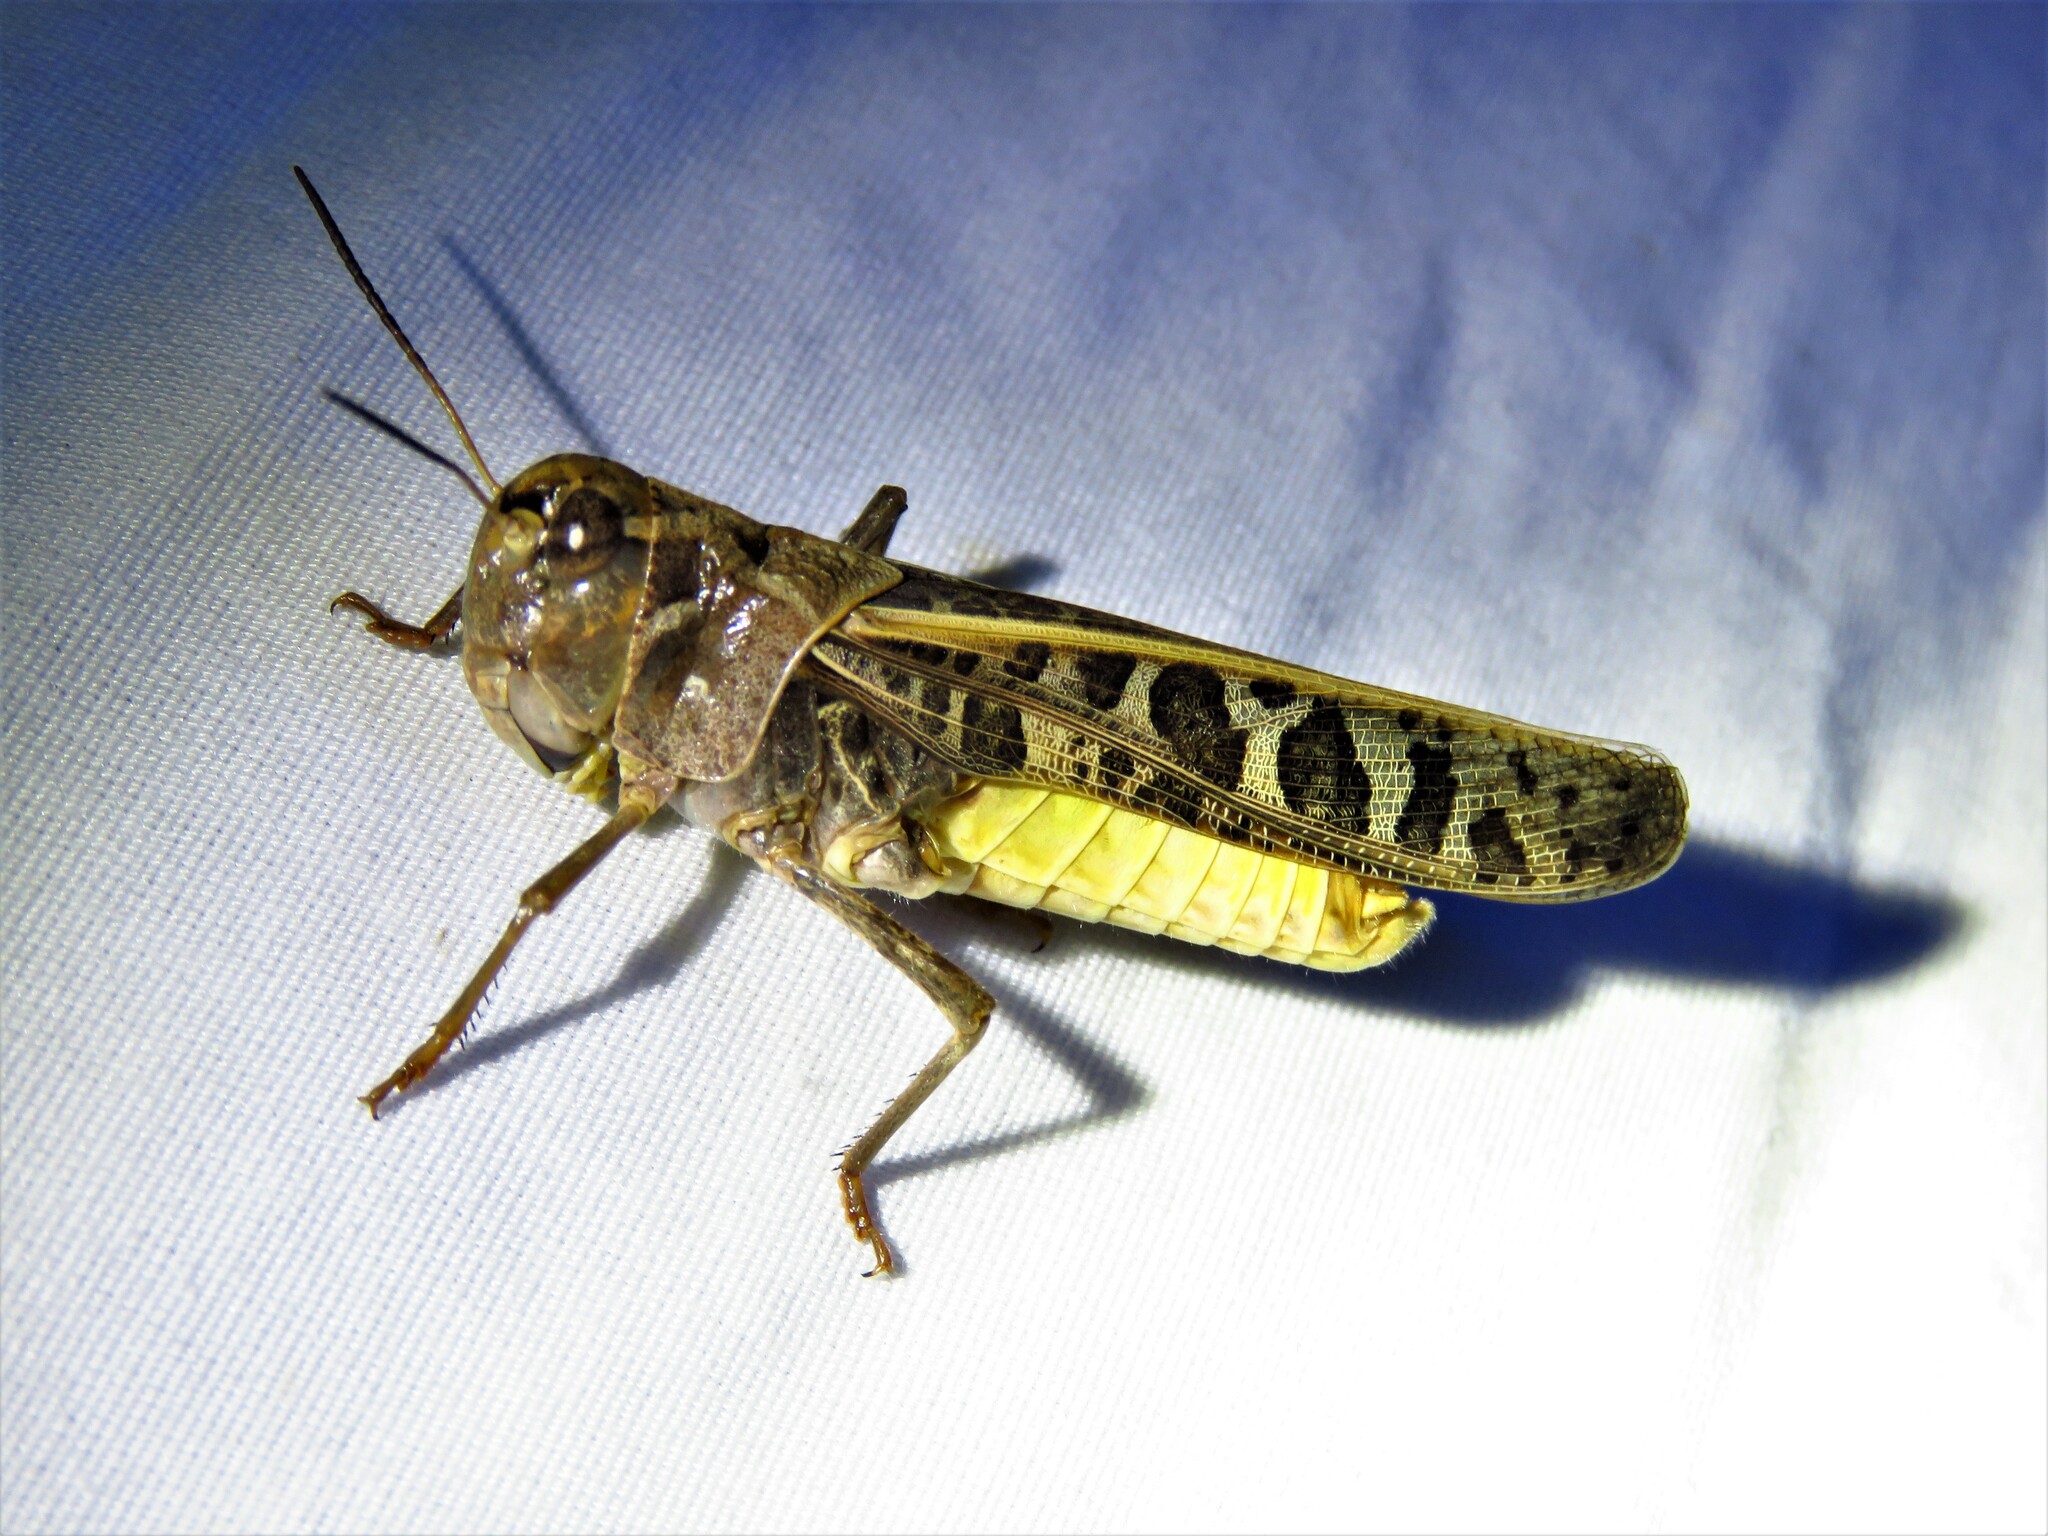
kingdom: Animalia
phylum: Arthropoda
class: Insecta
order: Orthoptera
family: Acrididae
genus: Hippiscus
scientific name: Hippiscus ocelote
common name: Wrinkled grasshopper
